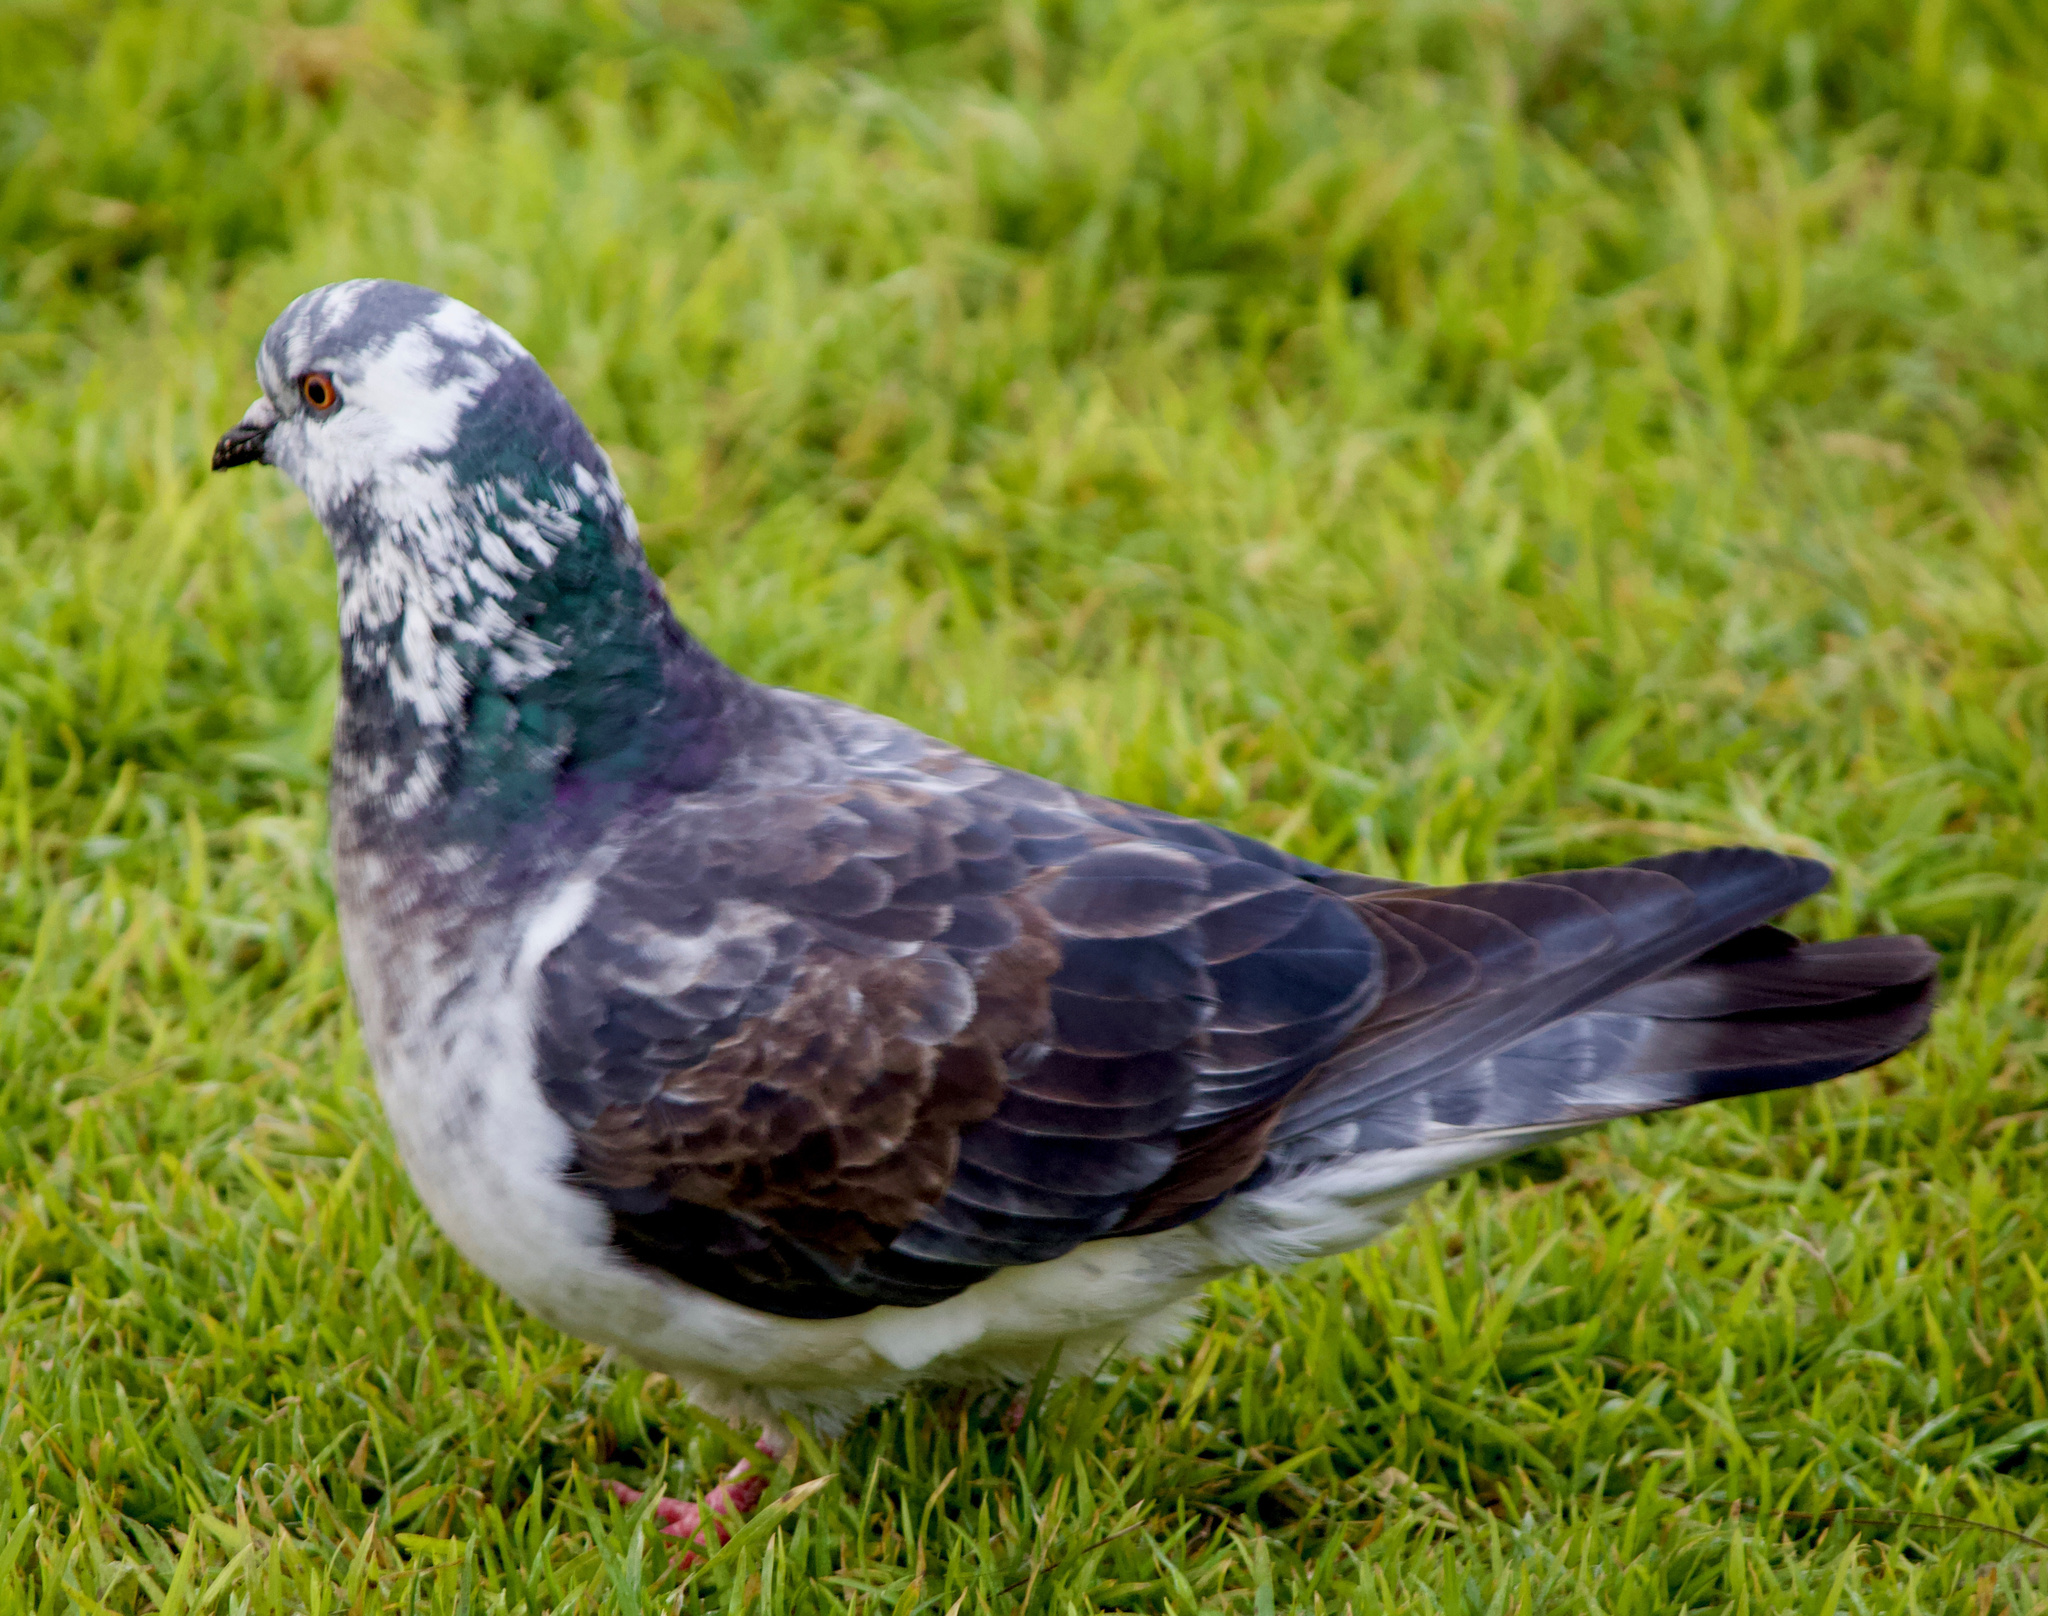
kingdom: Animalia
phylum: Chordata
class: Aves
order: Columbiformes
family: Columbidae
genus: Columba
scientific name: Columba livia
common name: Rock pigeon
